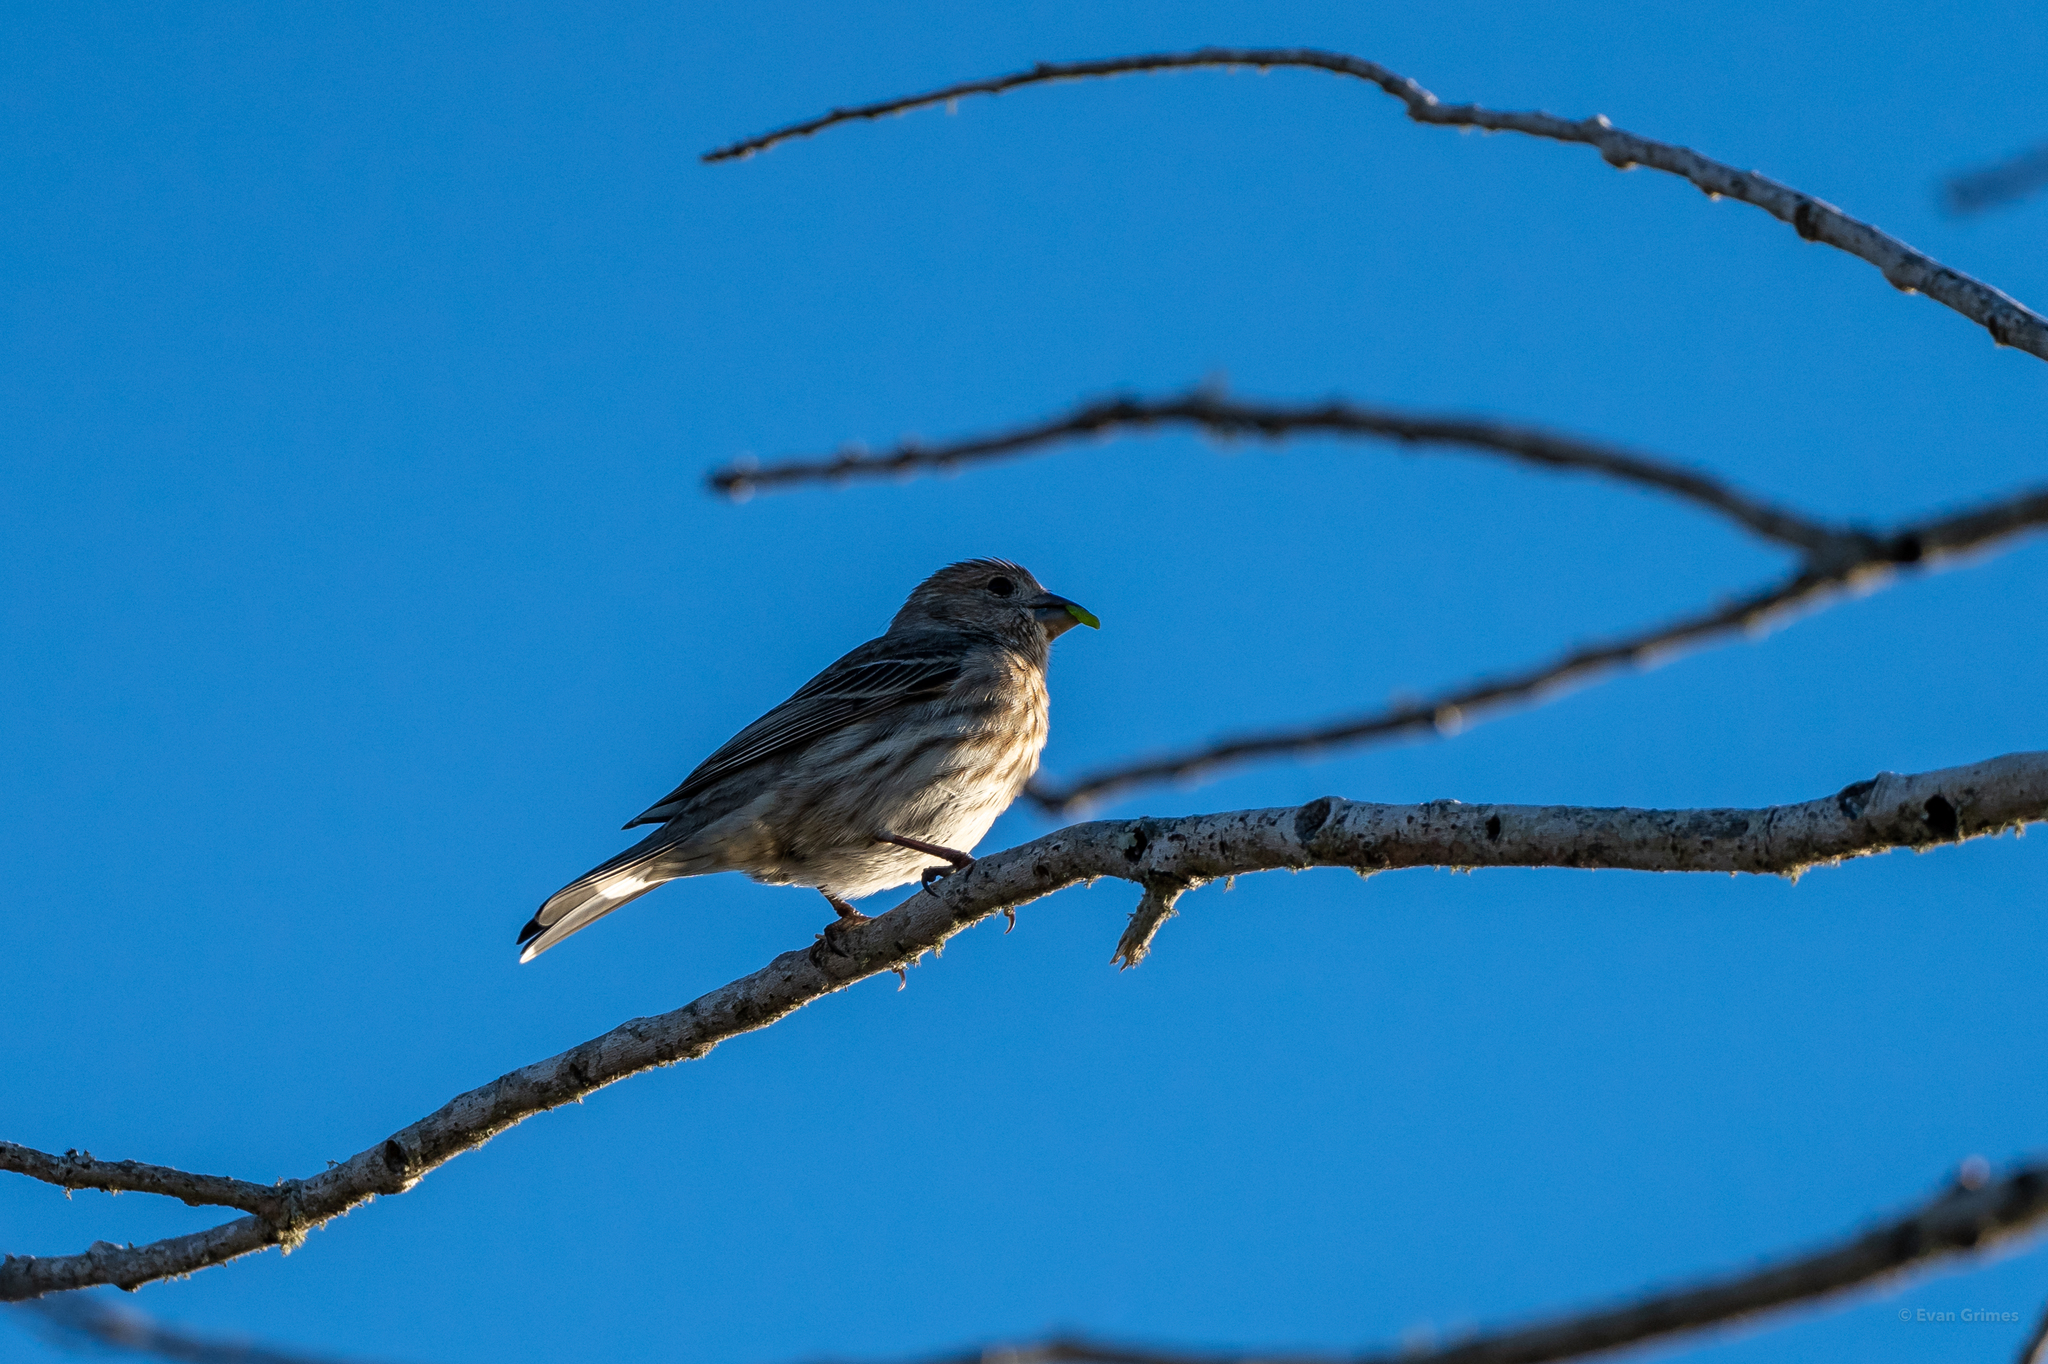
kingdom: Animalia
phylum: Chordata
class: Aves
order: Passeriformes
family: Fringillidae
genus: Haemorhous
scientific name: Haemorhous mexicanus
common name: House finch
